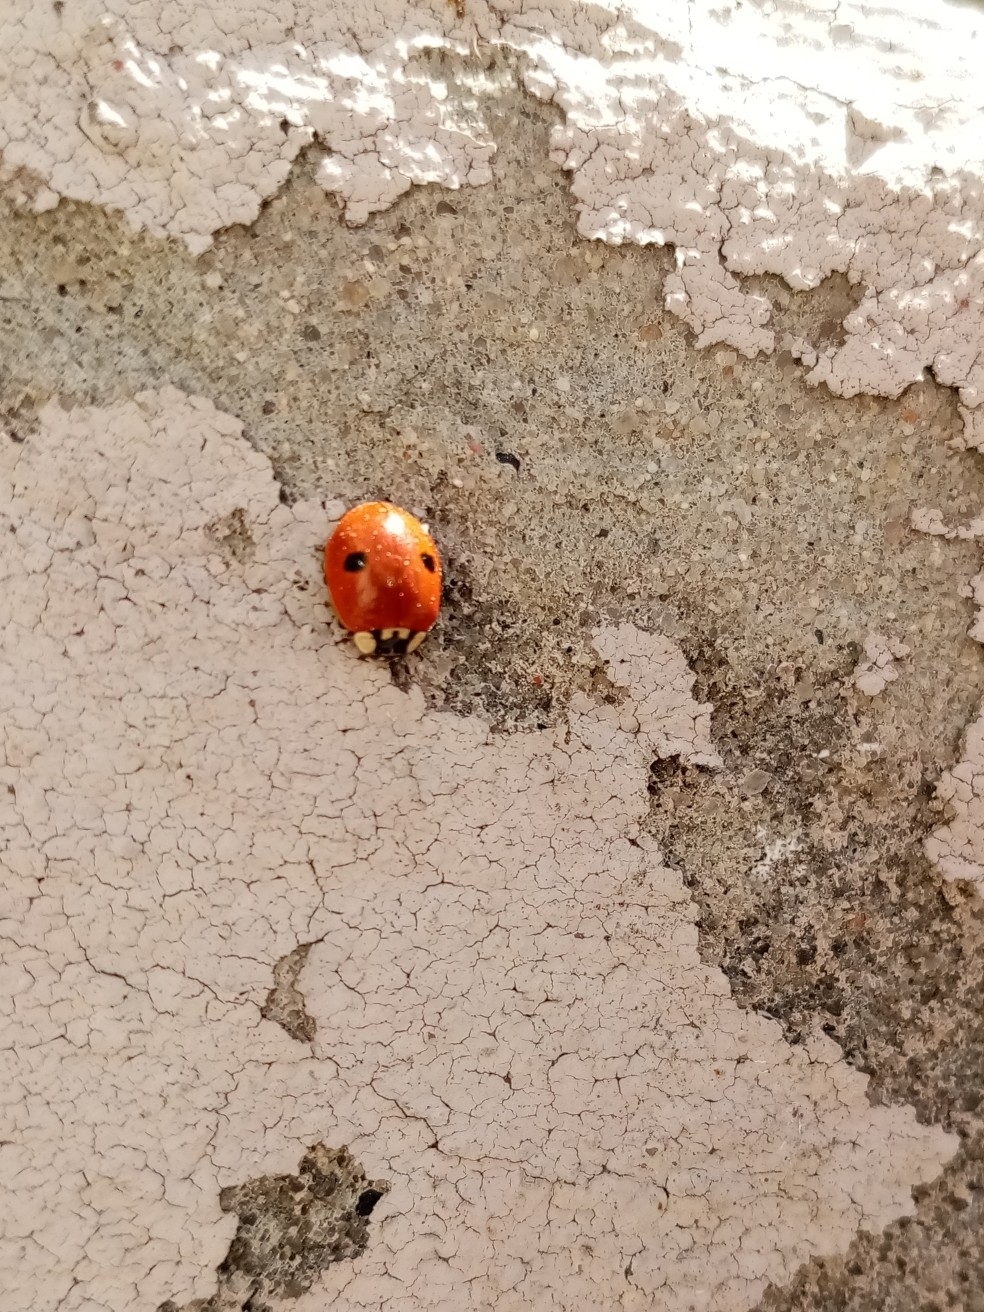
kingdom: Animalia
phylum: Arthropoda
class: Insecta
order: Coleoptera
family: Coccinellidae
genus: Adalia
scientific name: Adalia bipunctata
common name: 2-spot ladybird
